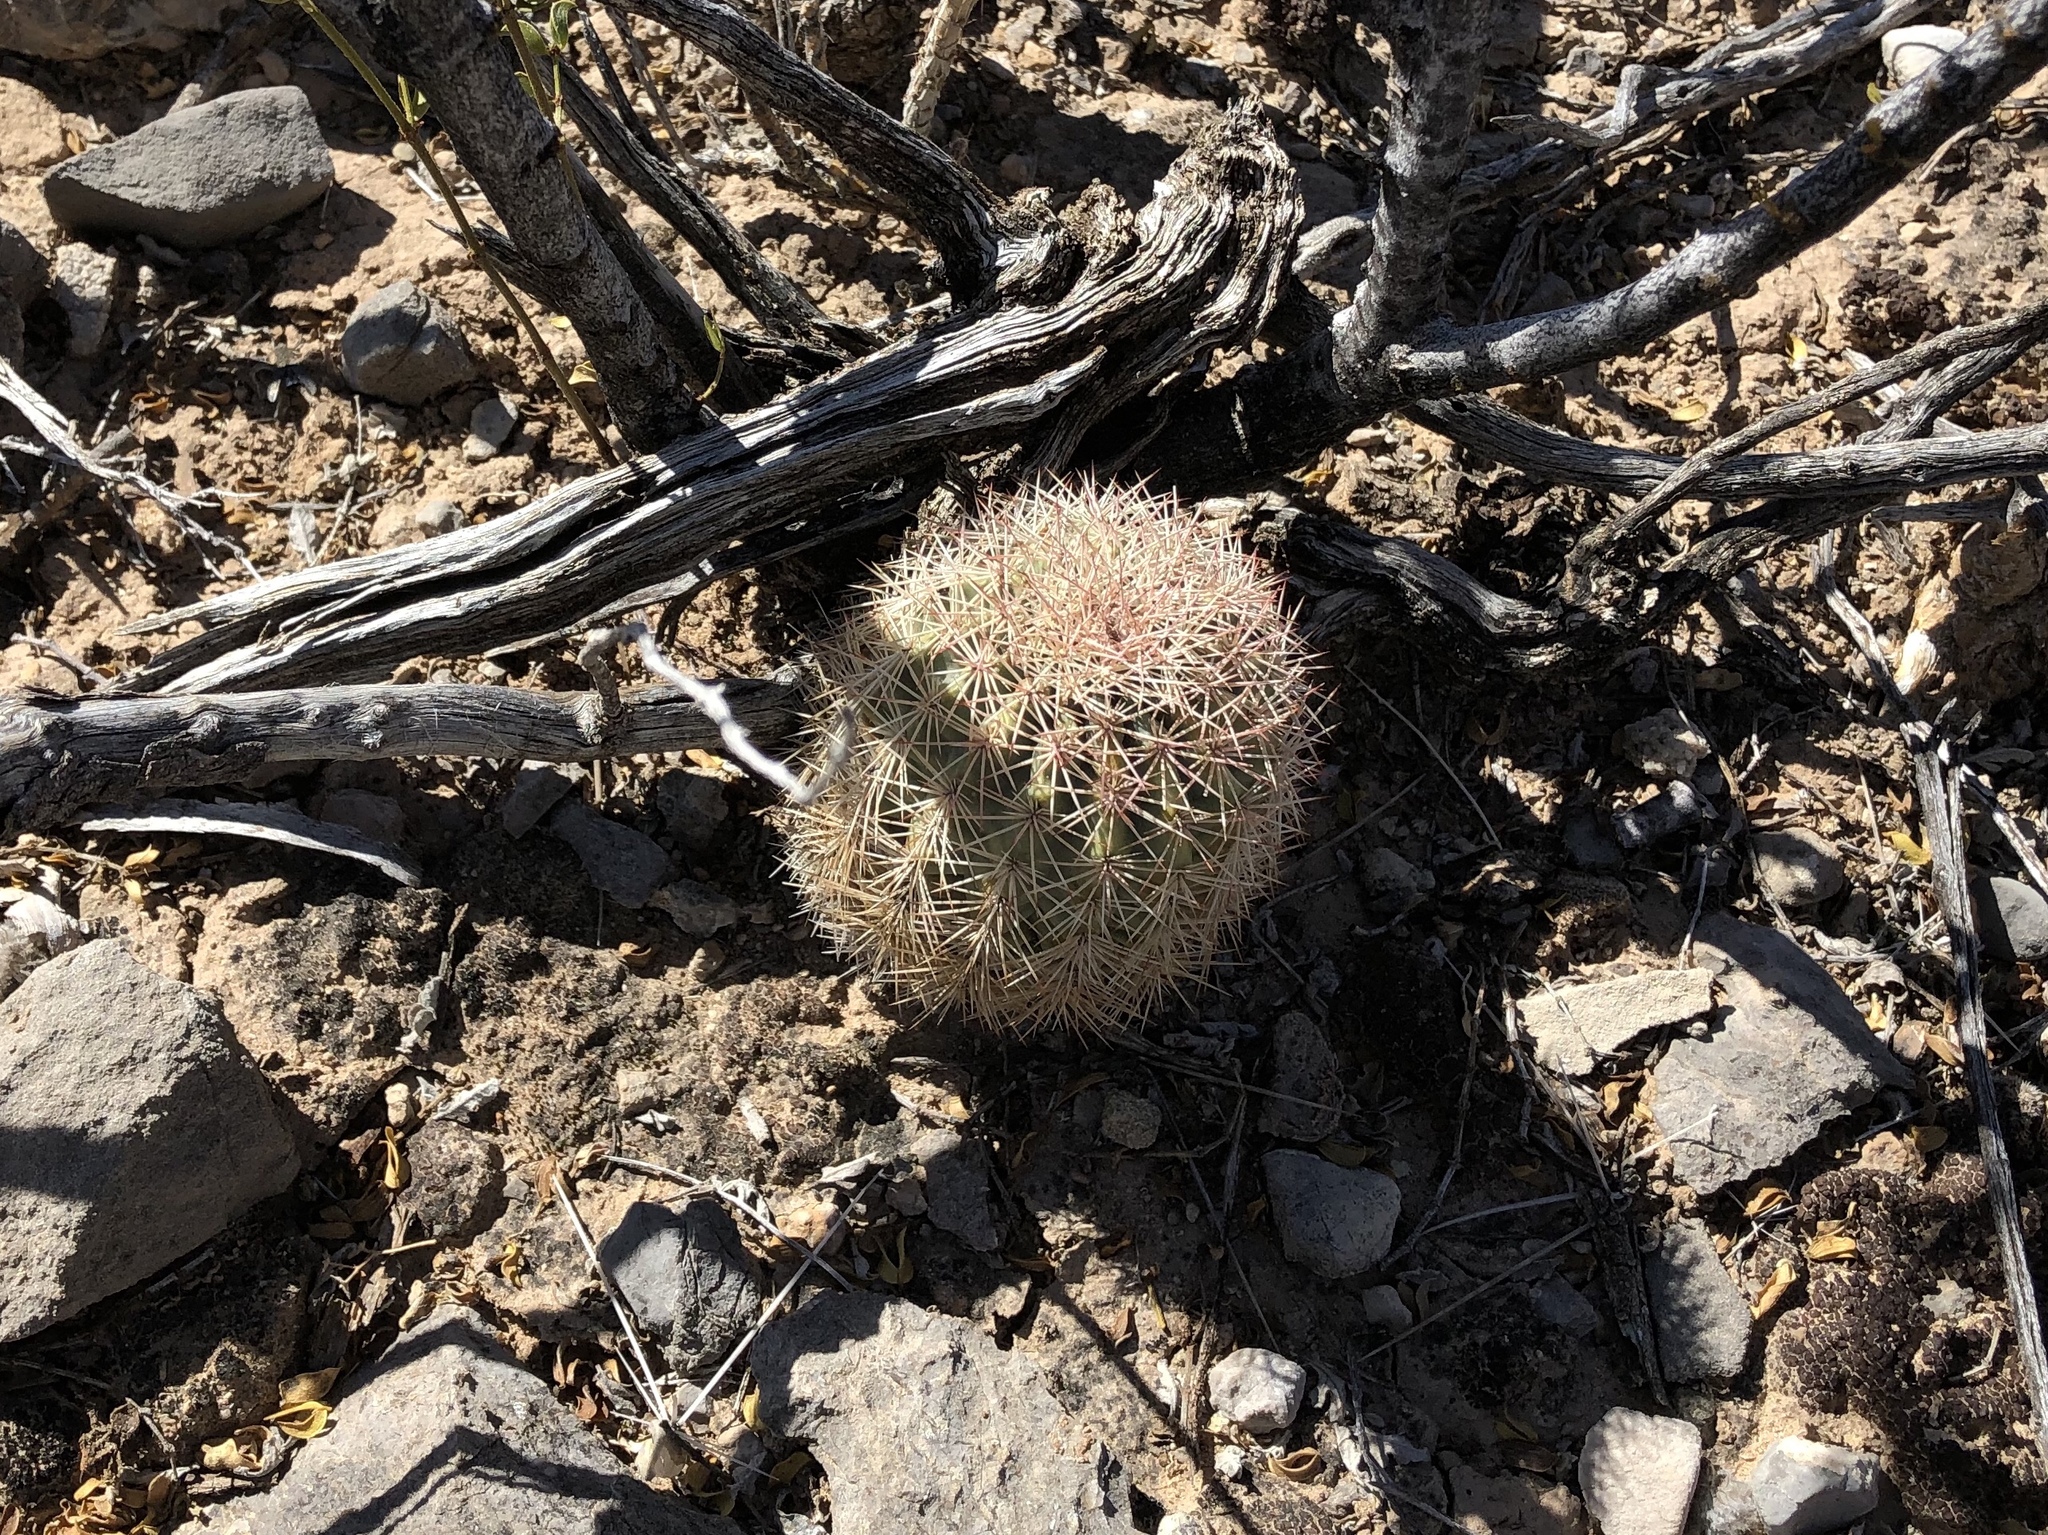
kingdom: Plantae
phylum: Tracheophyta
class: Magnoliopsida
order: Caryophyllales
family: Cactaceae
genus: Echinocereus
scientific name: Echinocereus dasyacanthus
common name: Spiny hedgehog cactus
